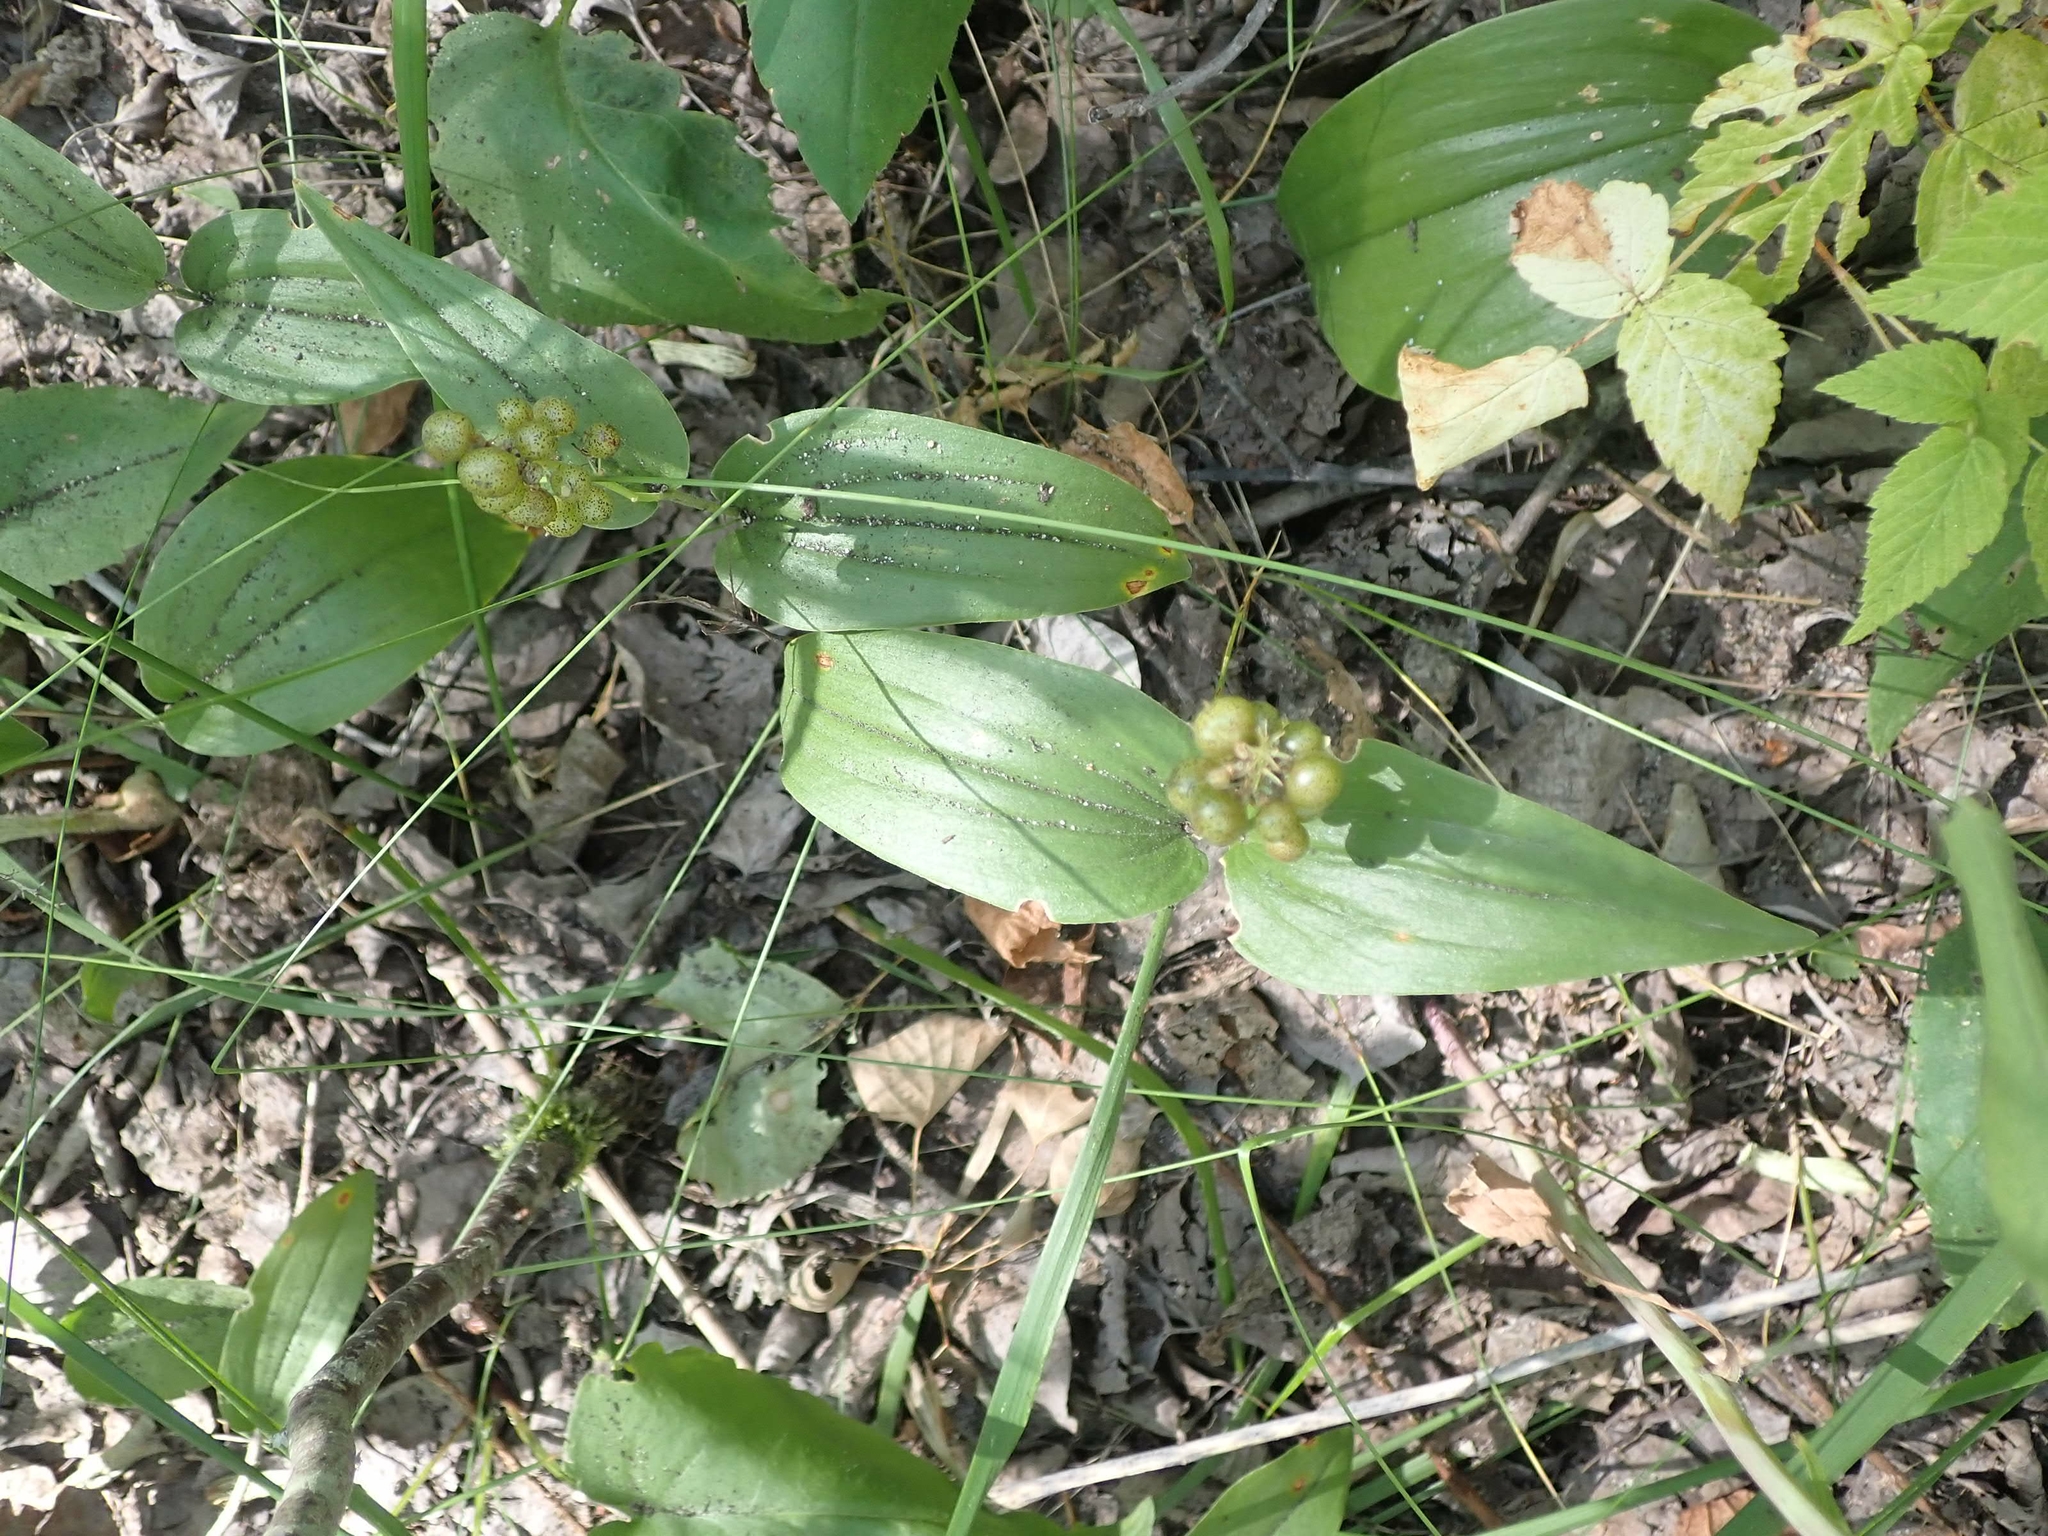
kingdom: Plantae
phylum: Tracheophyta
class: Liliopsida
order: Asparagales
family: Asparagaceae
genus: Maianthemum
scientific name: Maianthemum canadense
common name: False lily-of-the-valley
